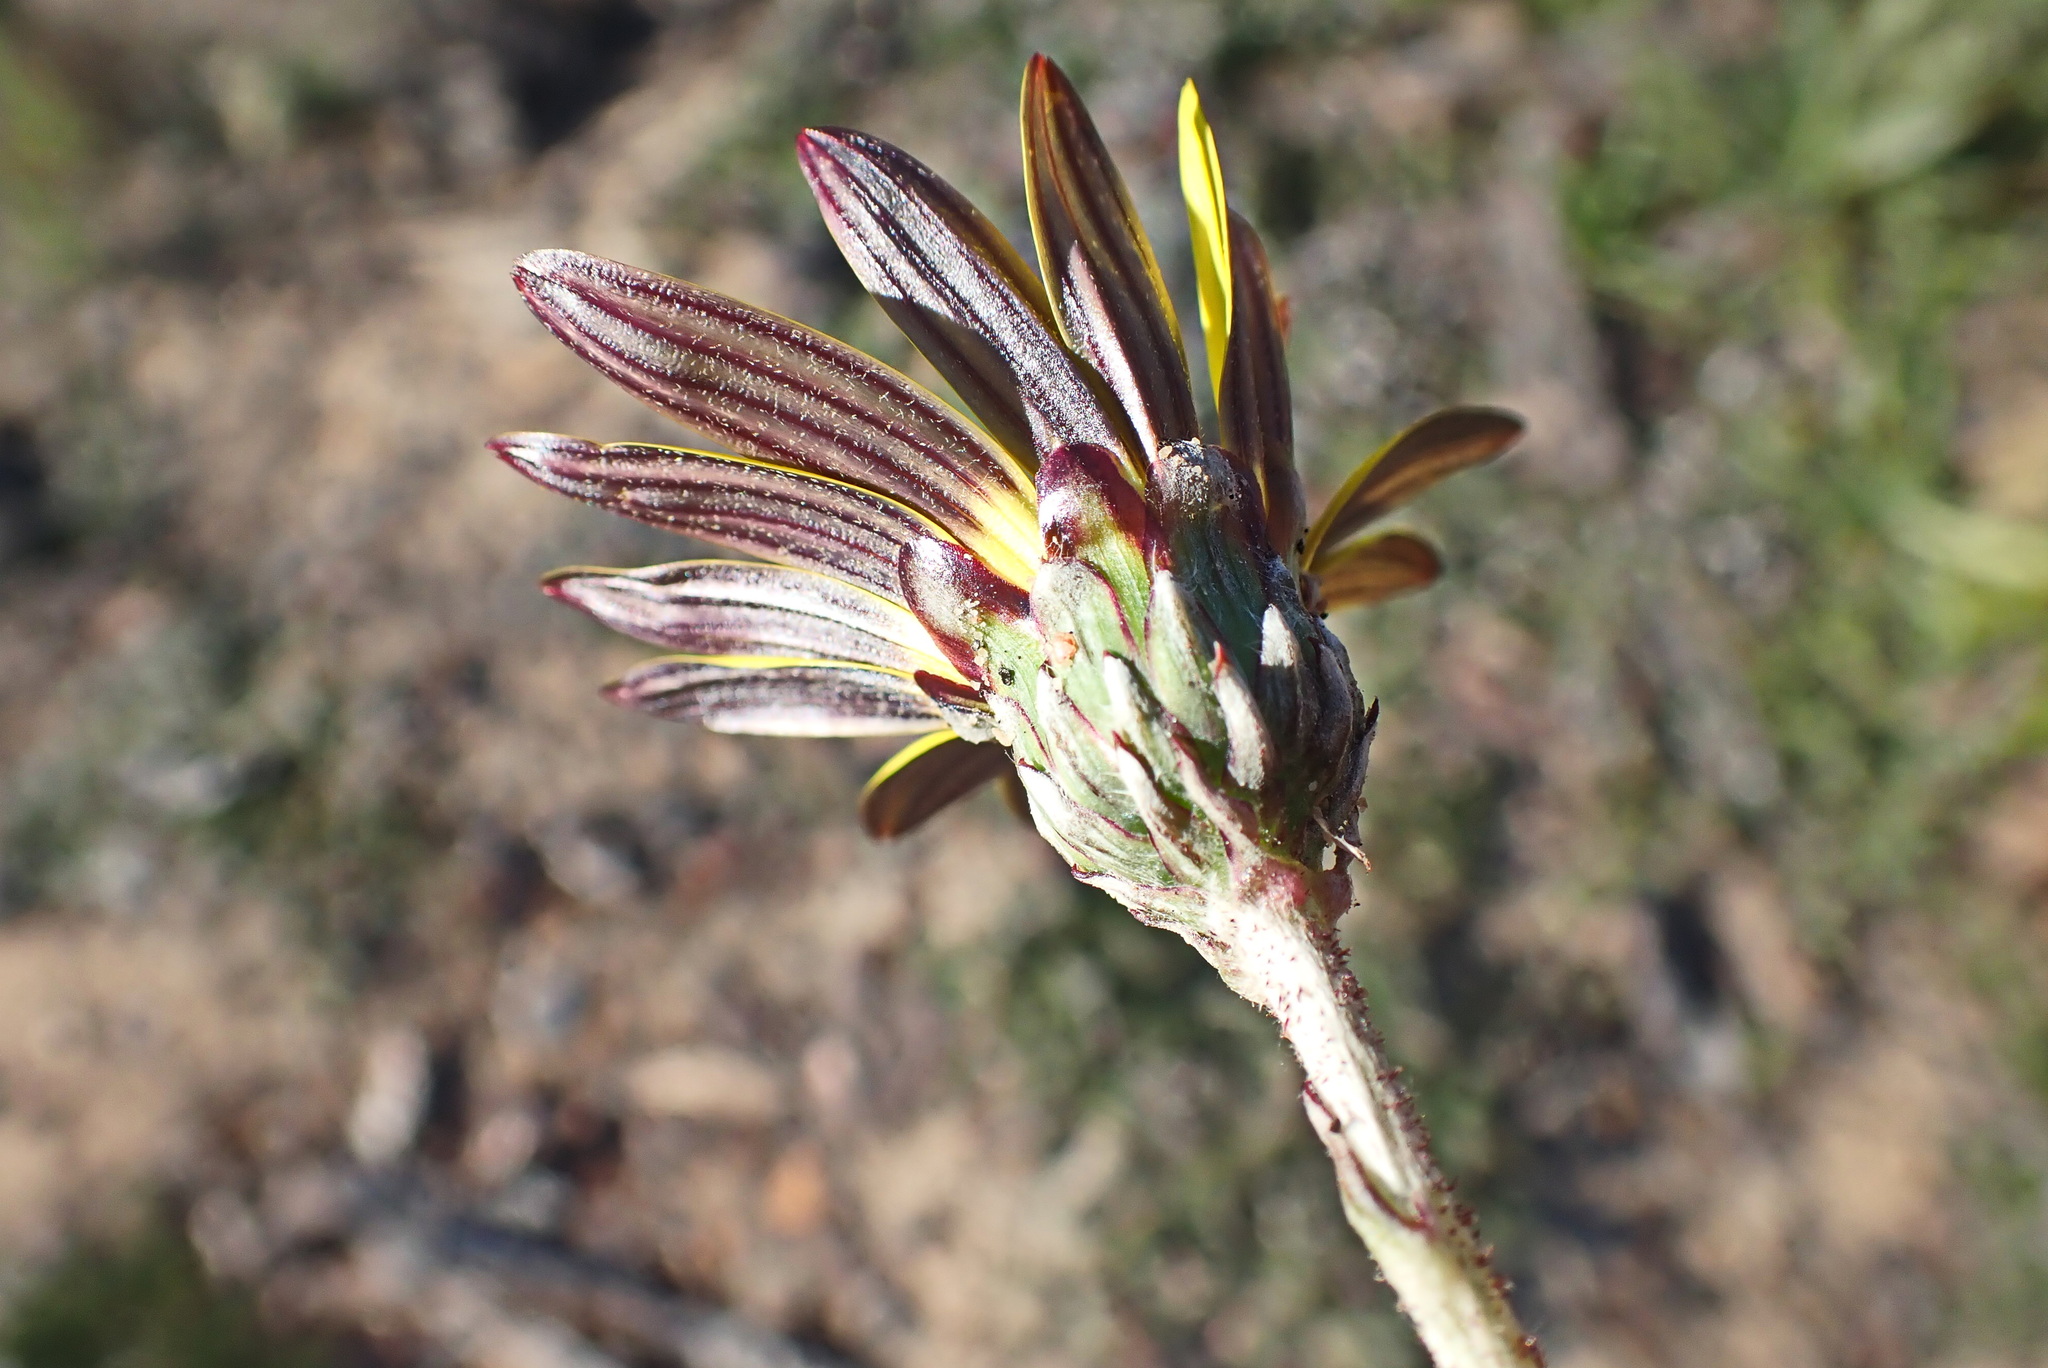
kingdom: Plantae
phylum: Tracheophyta
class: Magnoliopsida
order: Asterales
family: Asteraceae
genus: Arctotheca
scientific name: Arctotheca prostrata
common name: Capeweed
